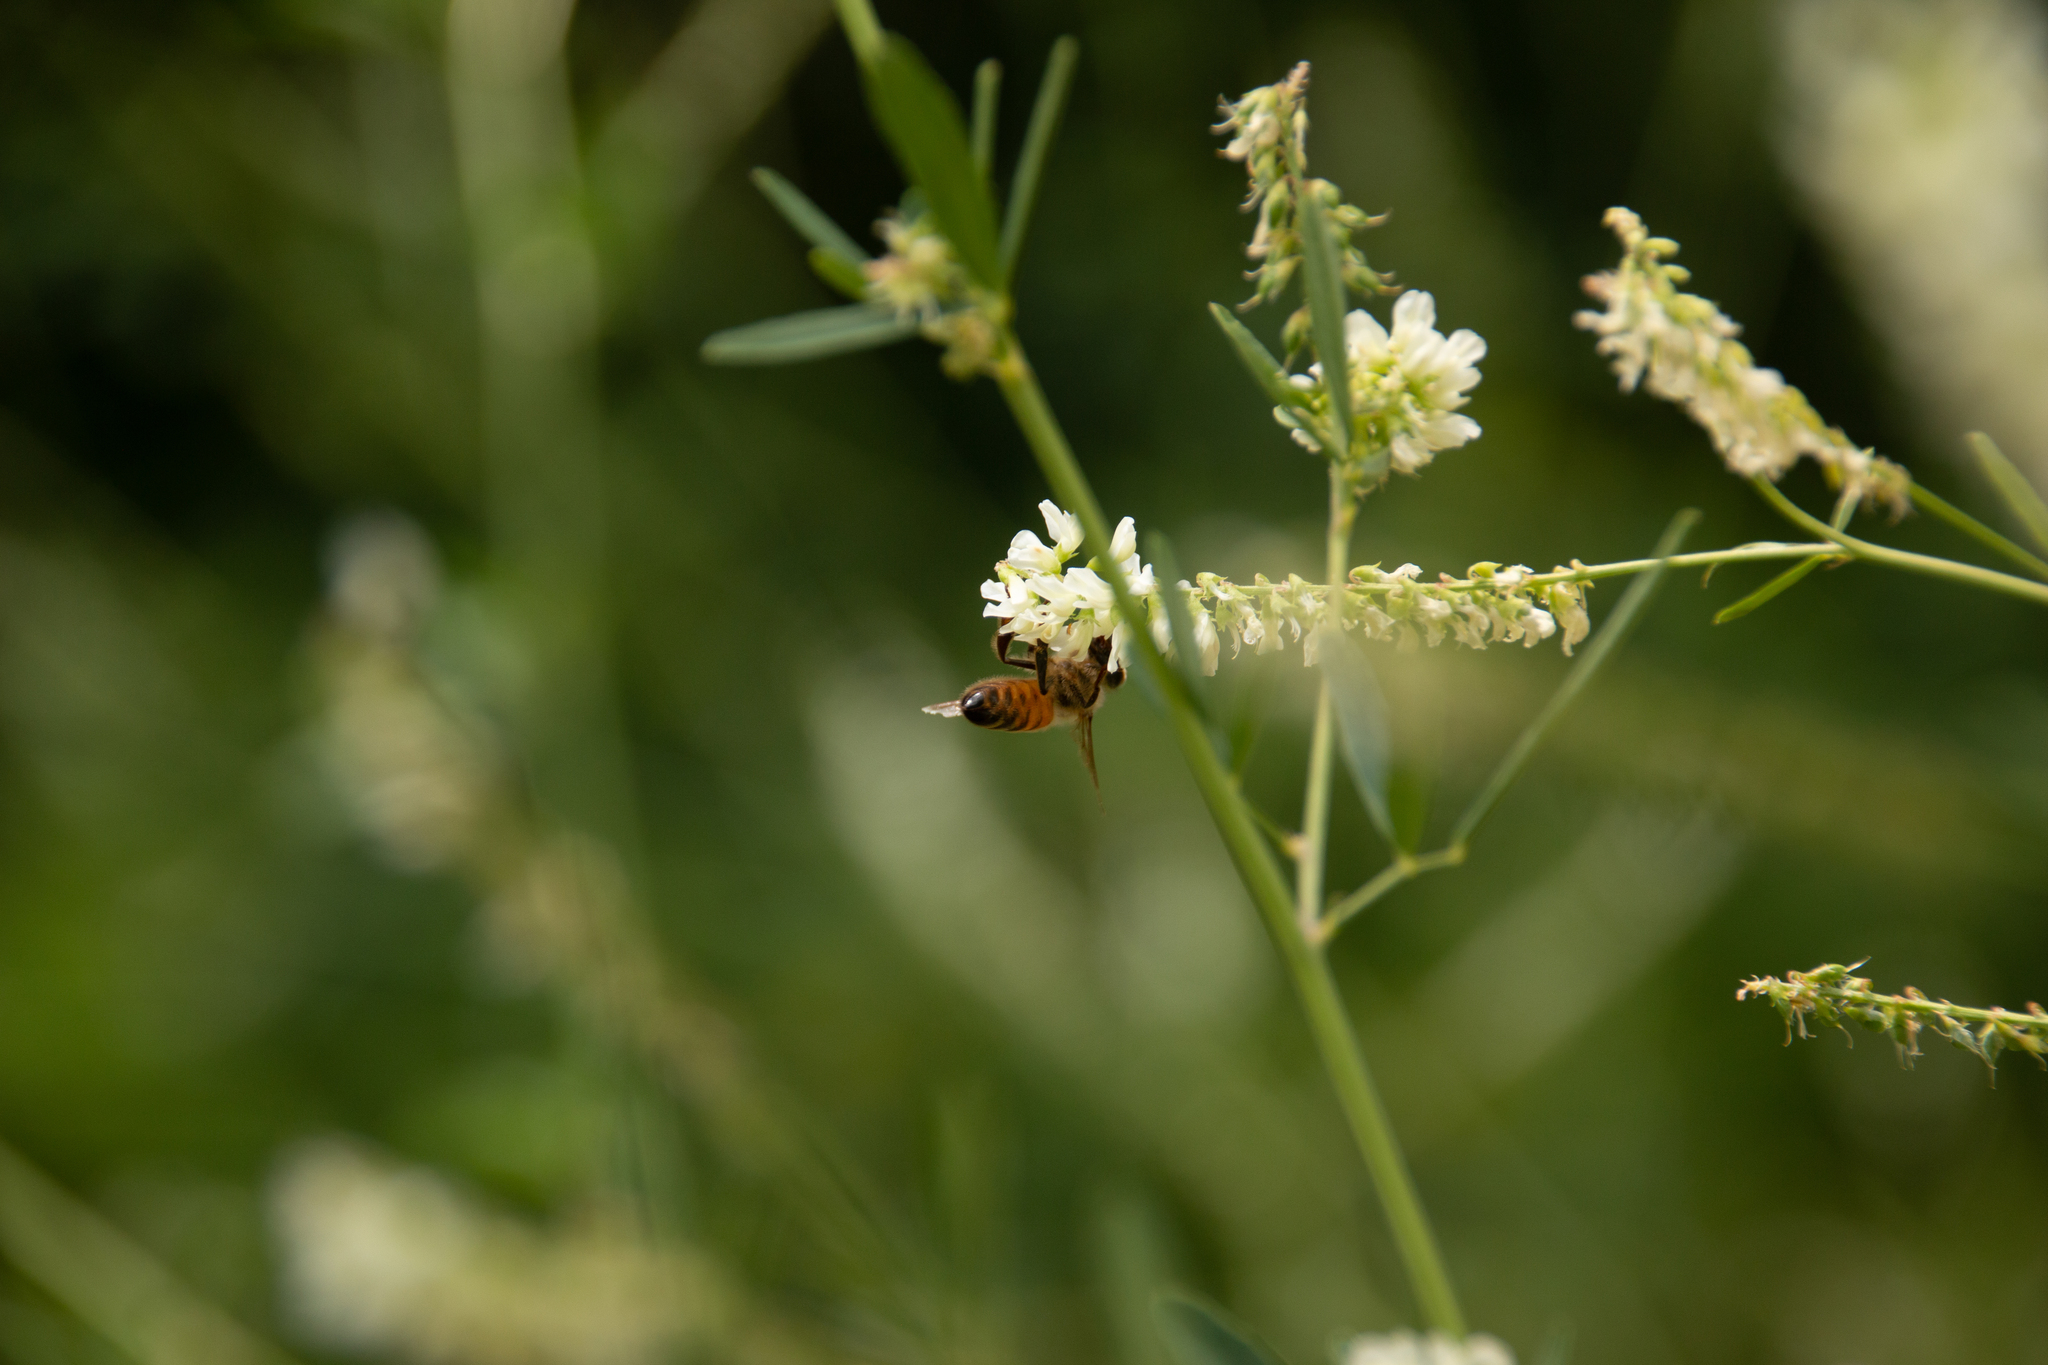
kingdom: Animalia
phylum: Arthropoda
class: Insecta
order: Hymenoptera
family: Apidae
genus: Apis
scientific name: Apis mellifera
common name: Honey bee
